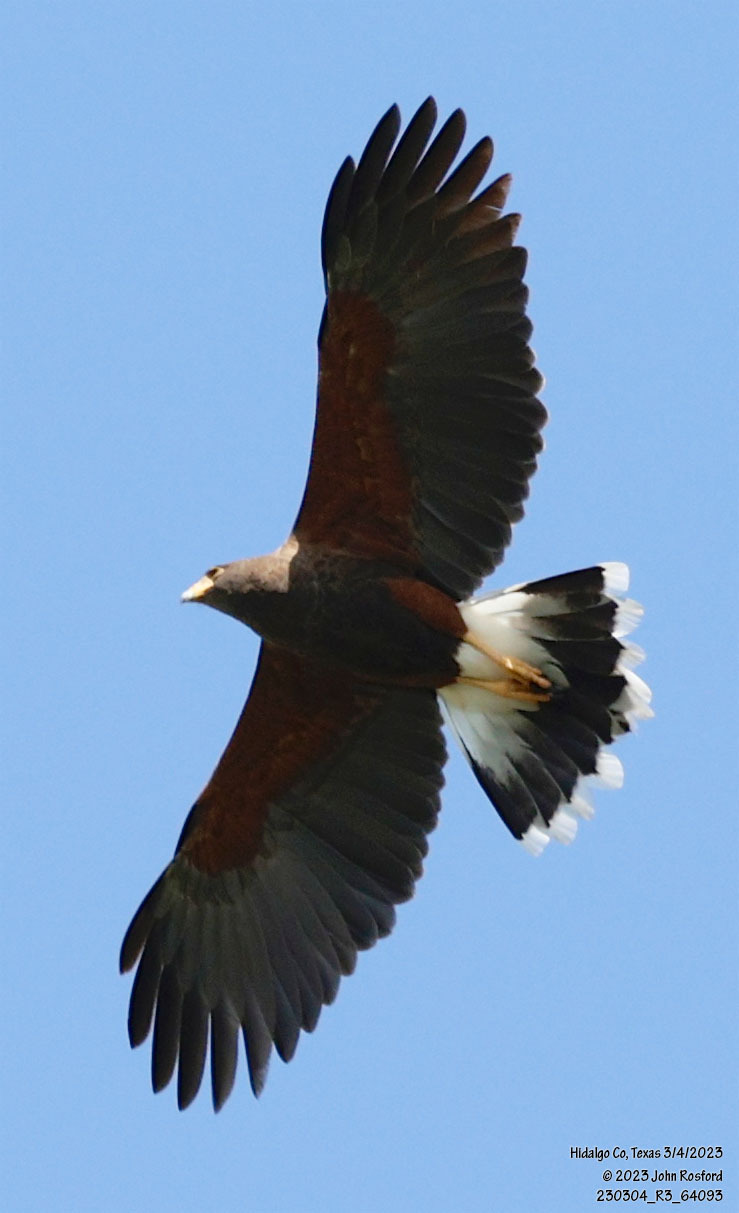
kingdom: Animalia
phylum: Chordata
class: Aves
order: Accipitriformes
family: Accipitridae
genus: Parabuteo
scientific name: Parabuteo unicinctus
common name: Harris's hawk
